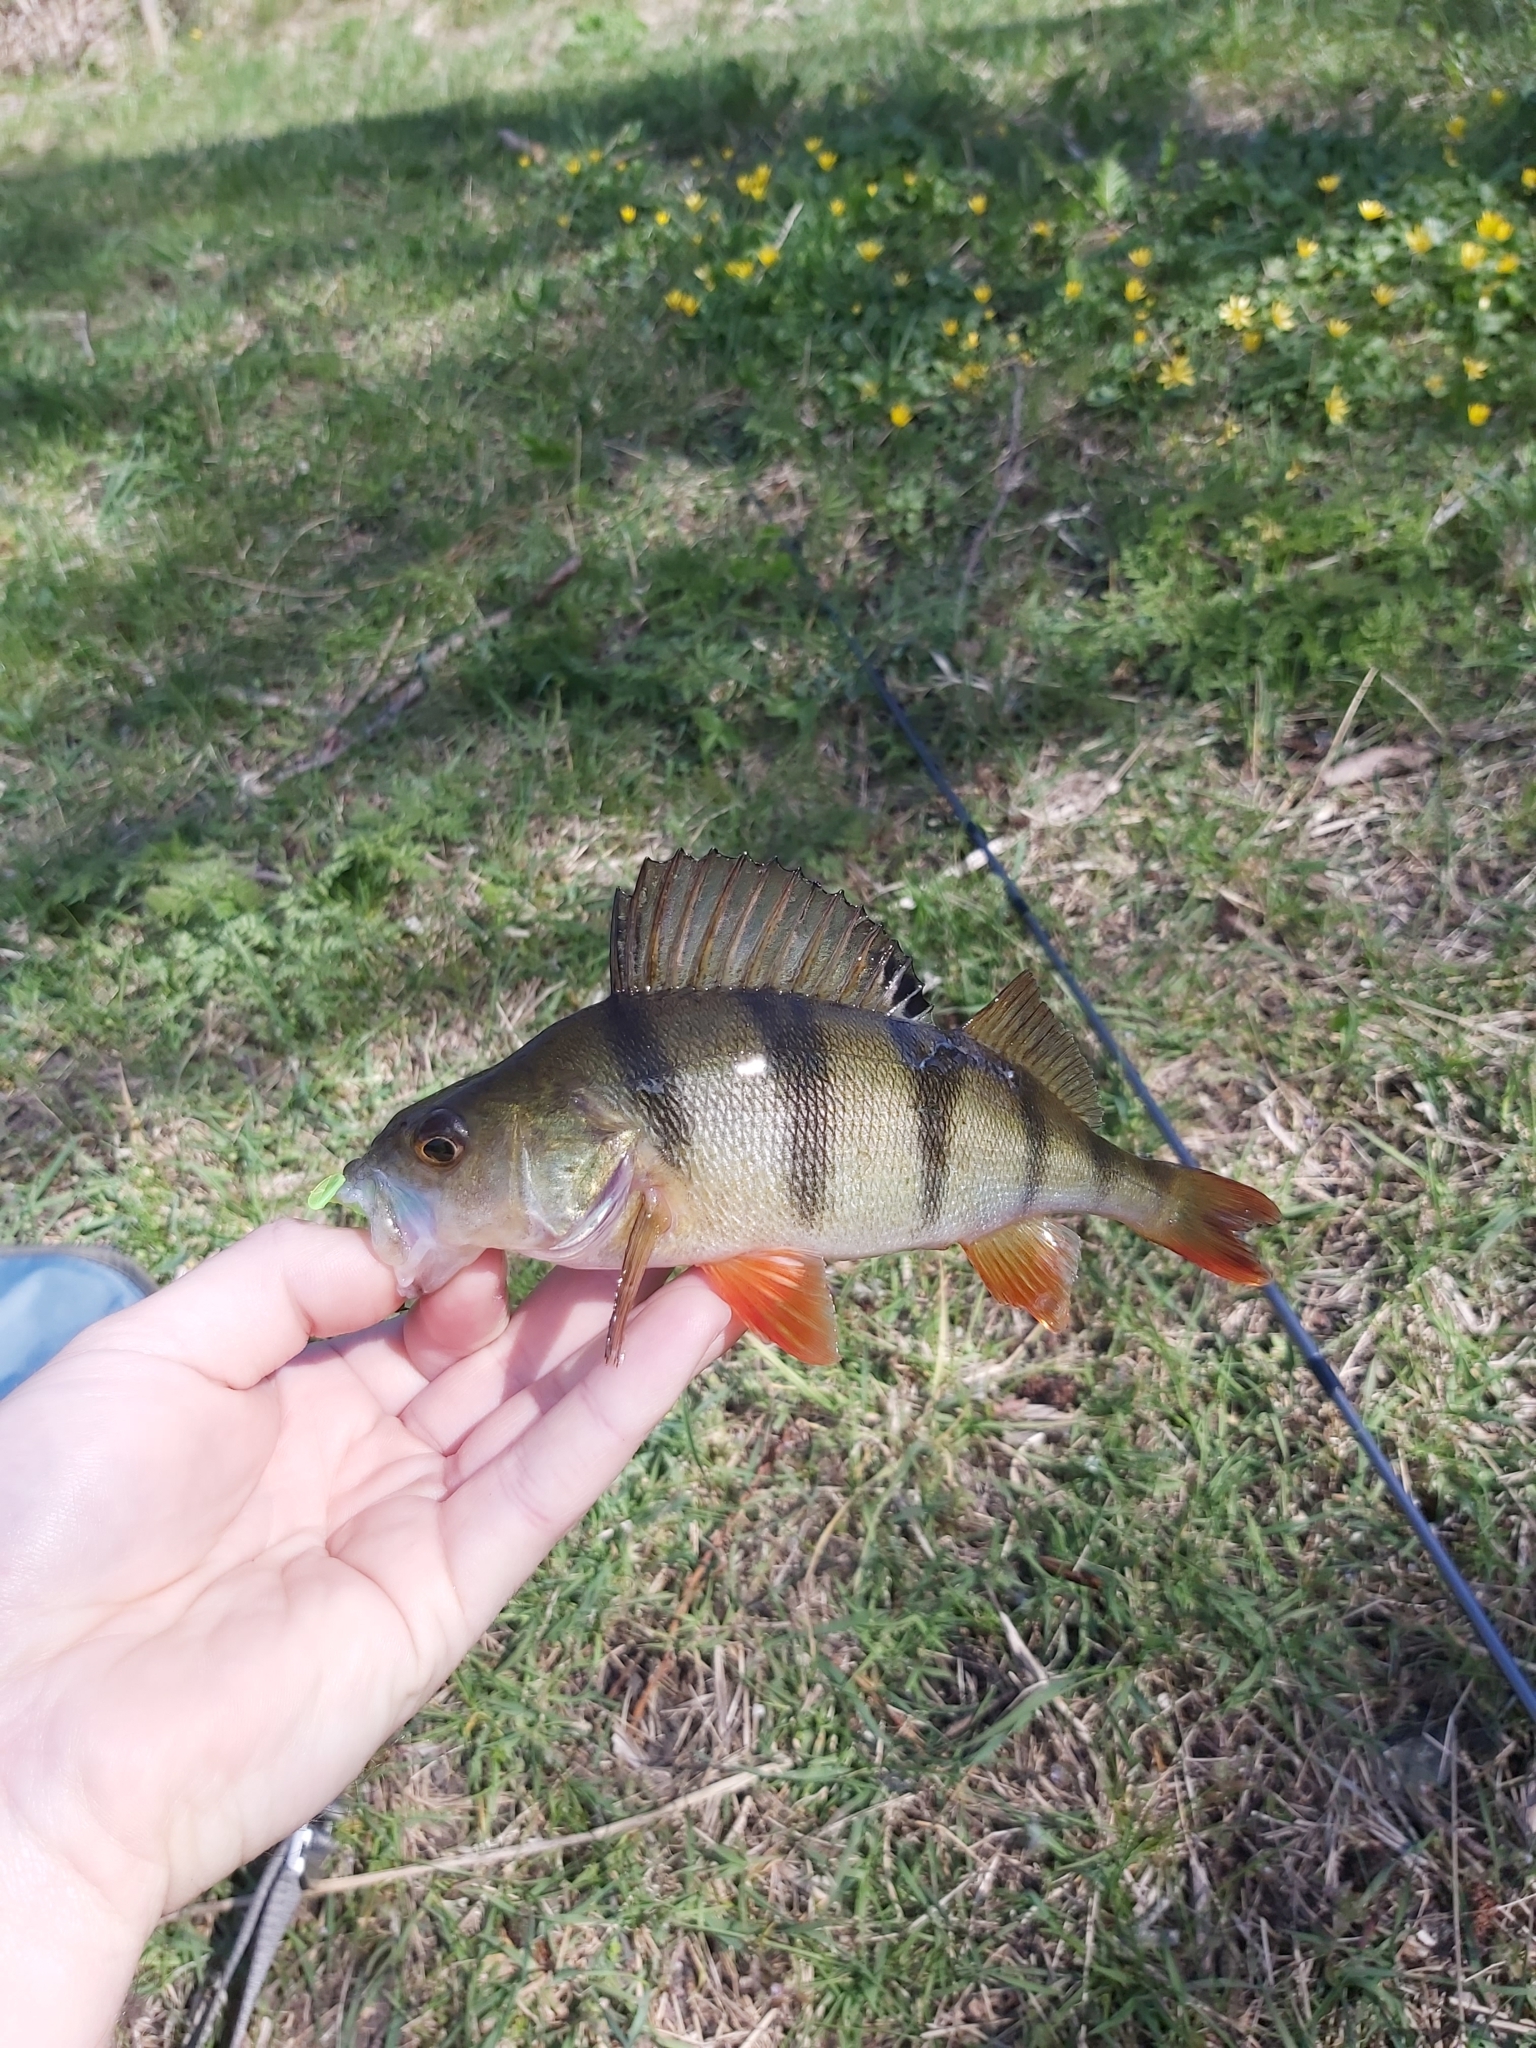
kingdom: Animalia
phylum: Chordata
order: Perciformes
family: Percidae
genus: Perca
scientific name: Perca fluviatilis
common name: Perch
